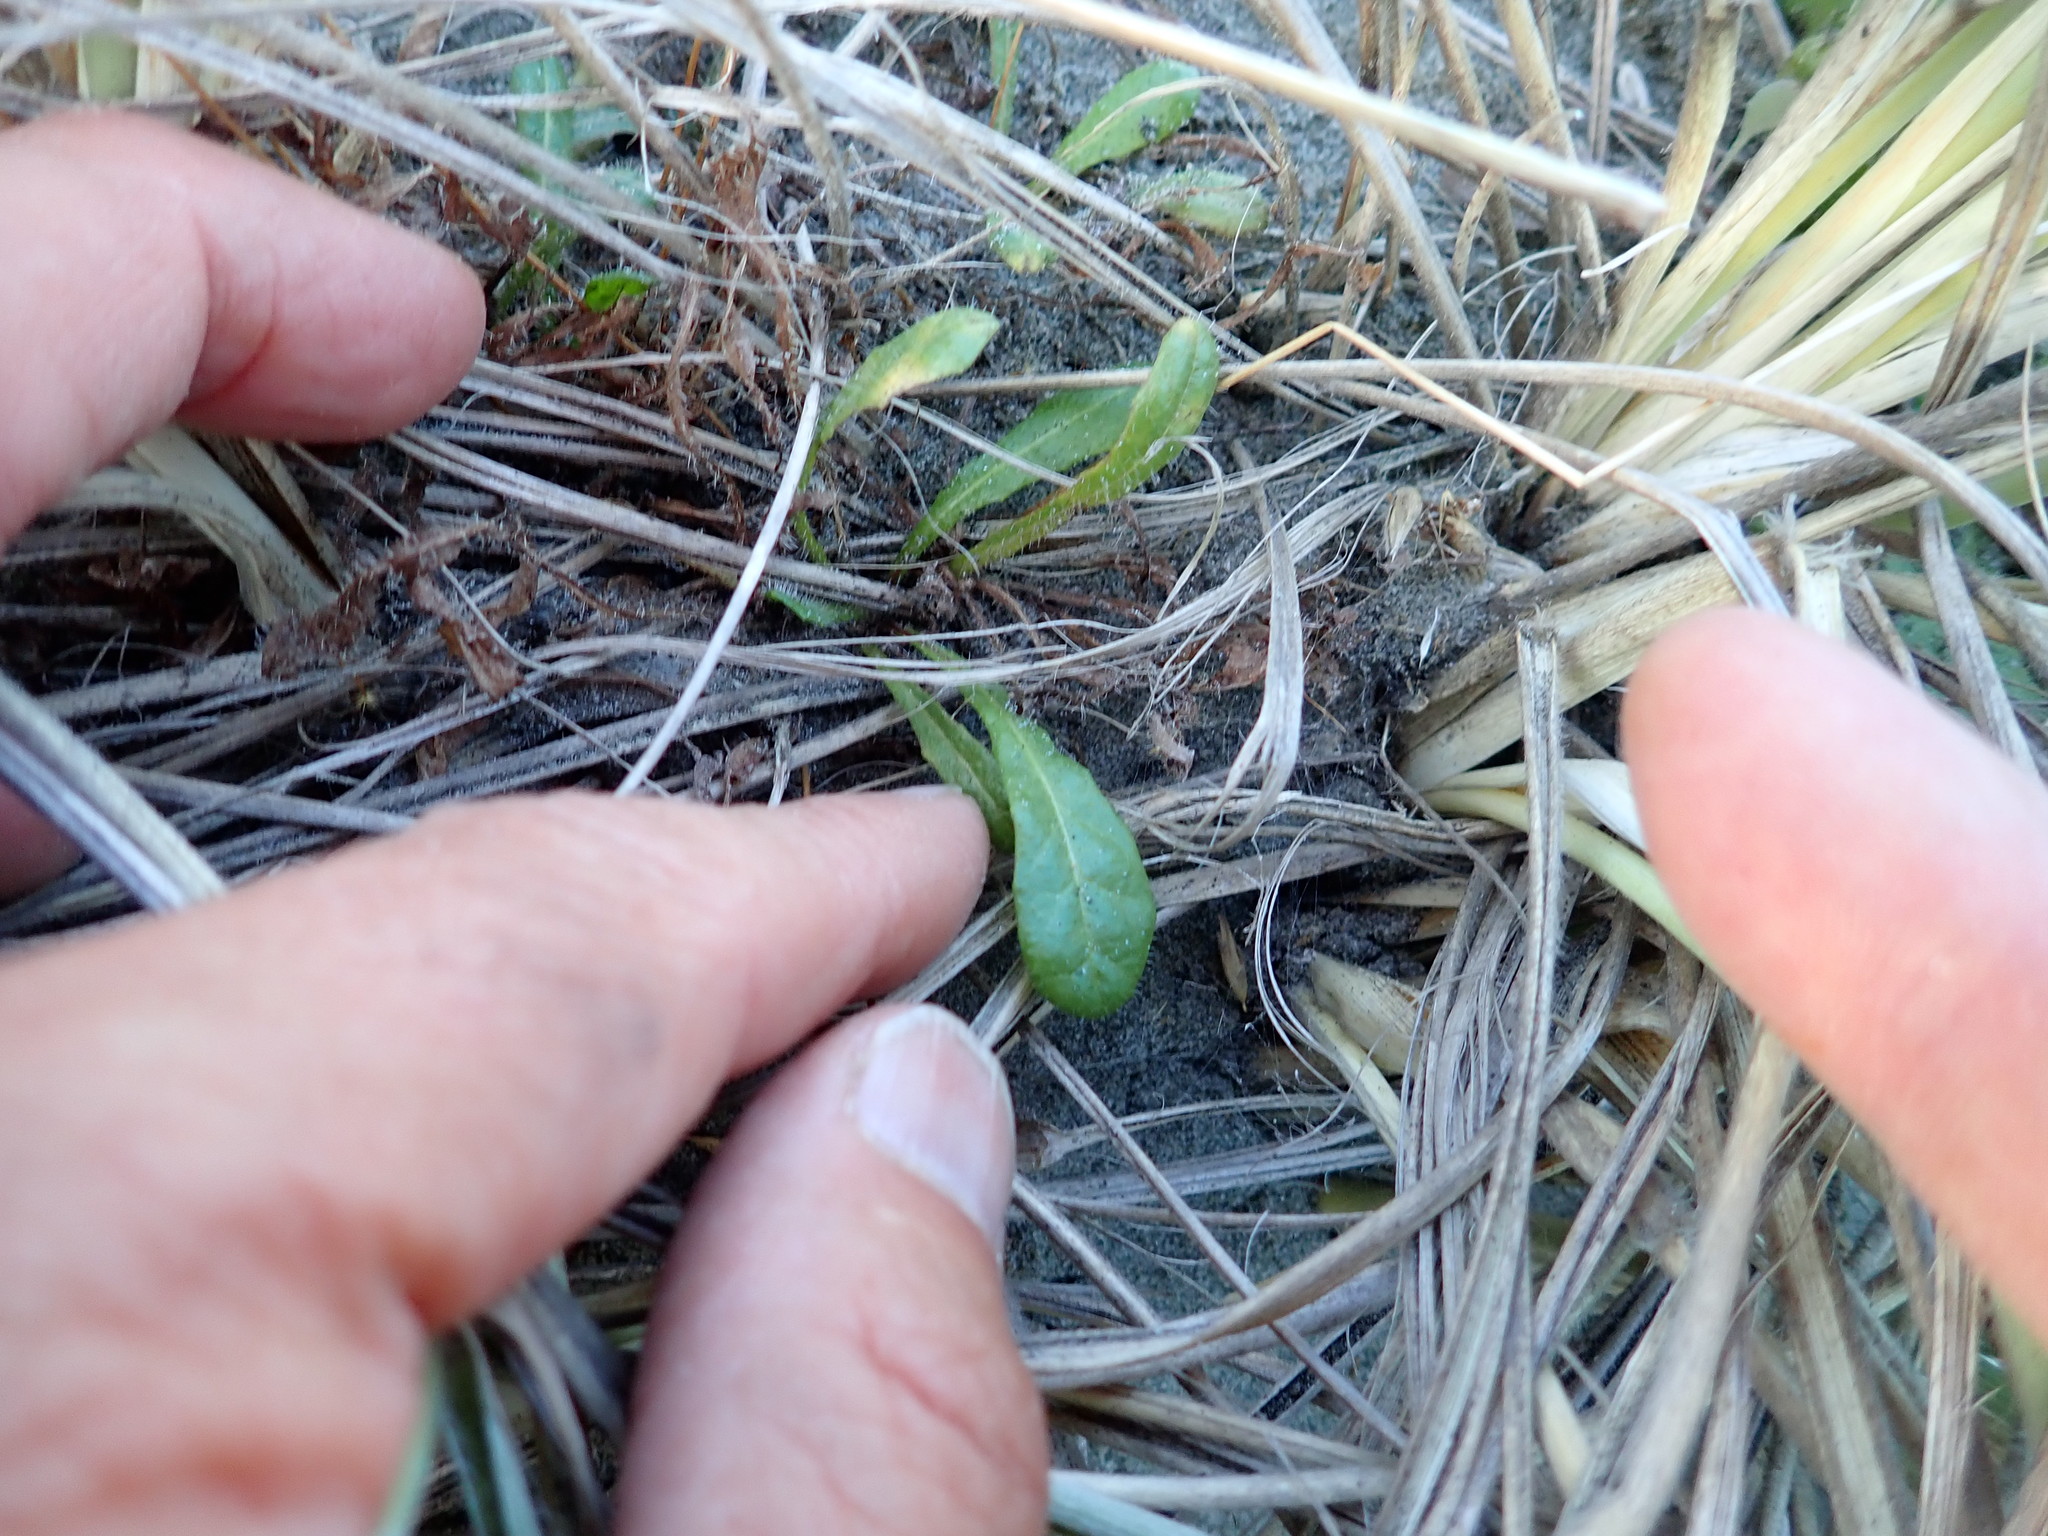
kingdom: Animalia
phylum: Arthropoda
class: Arachnida
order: Araneae
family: Theridiidae
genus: Latrodectus
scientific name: Latrodectus katipo
